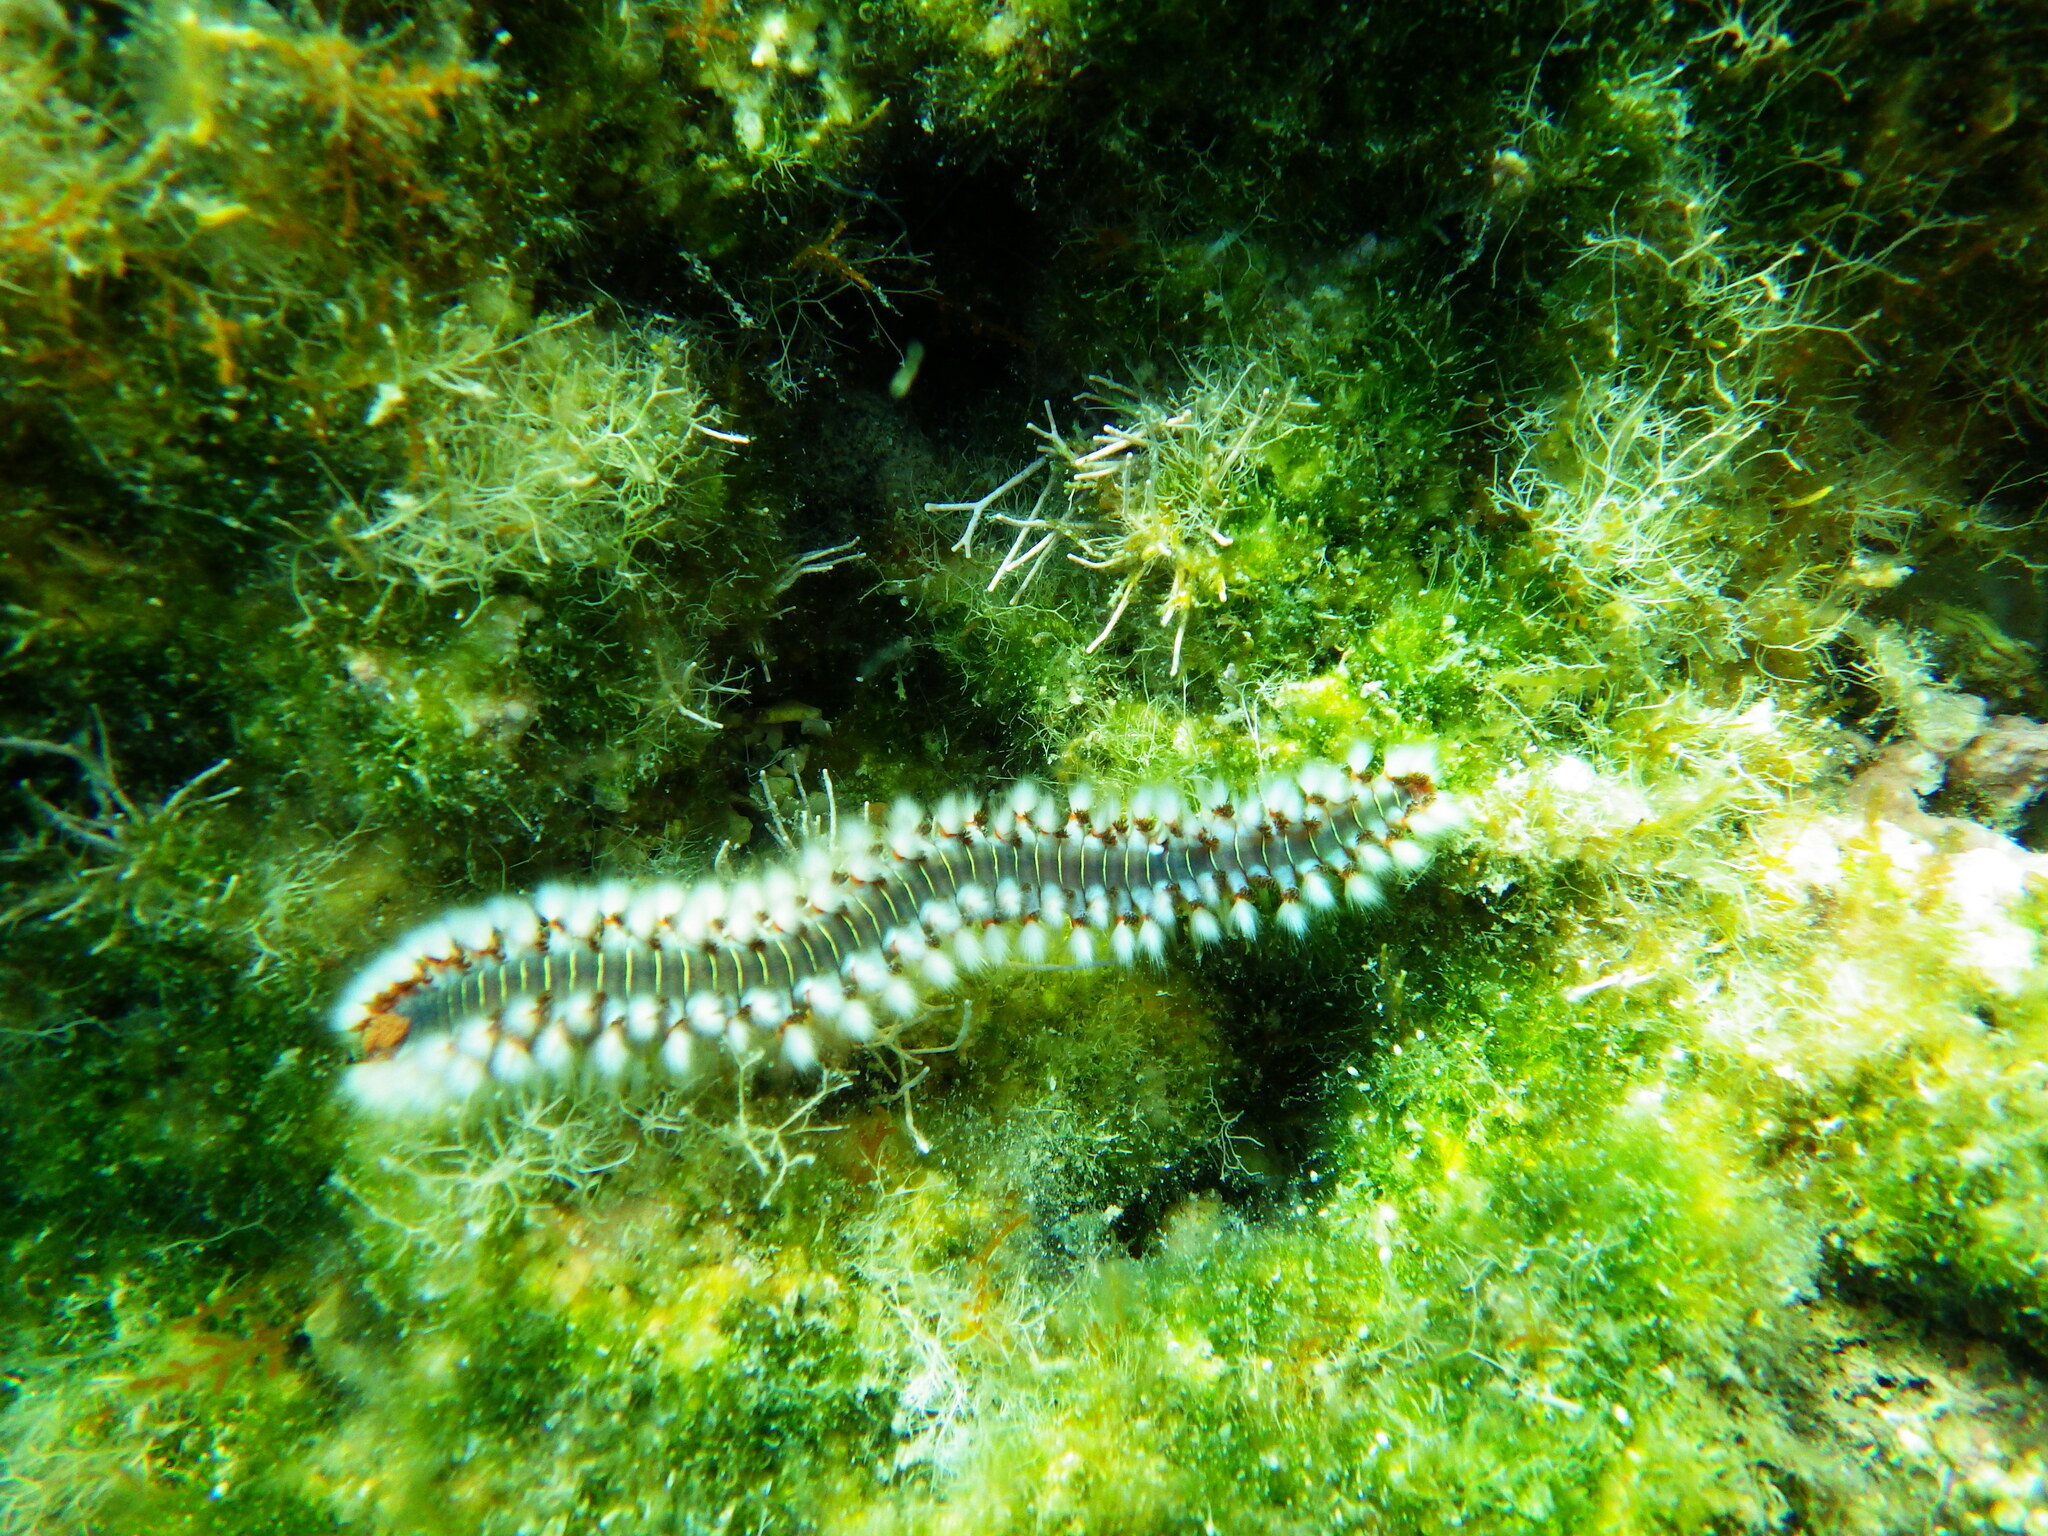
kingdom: Animalia
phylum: Annelida
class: Polychaeta
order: Amphinomida
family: Amphinomidae
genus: Hermodice
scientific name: Hermodice carunculata
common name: Bearded fireworm
